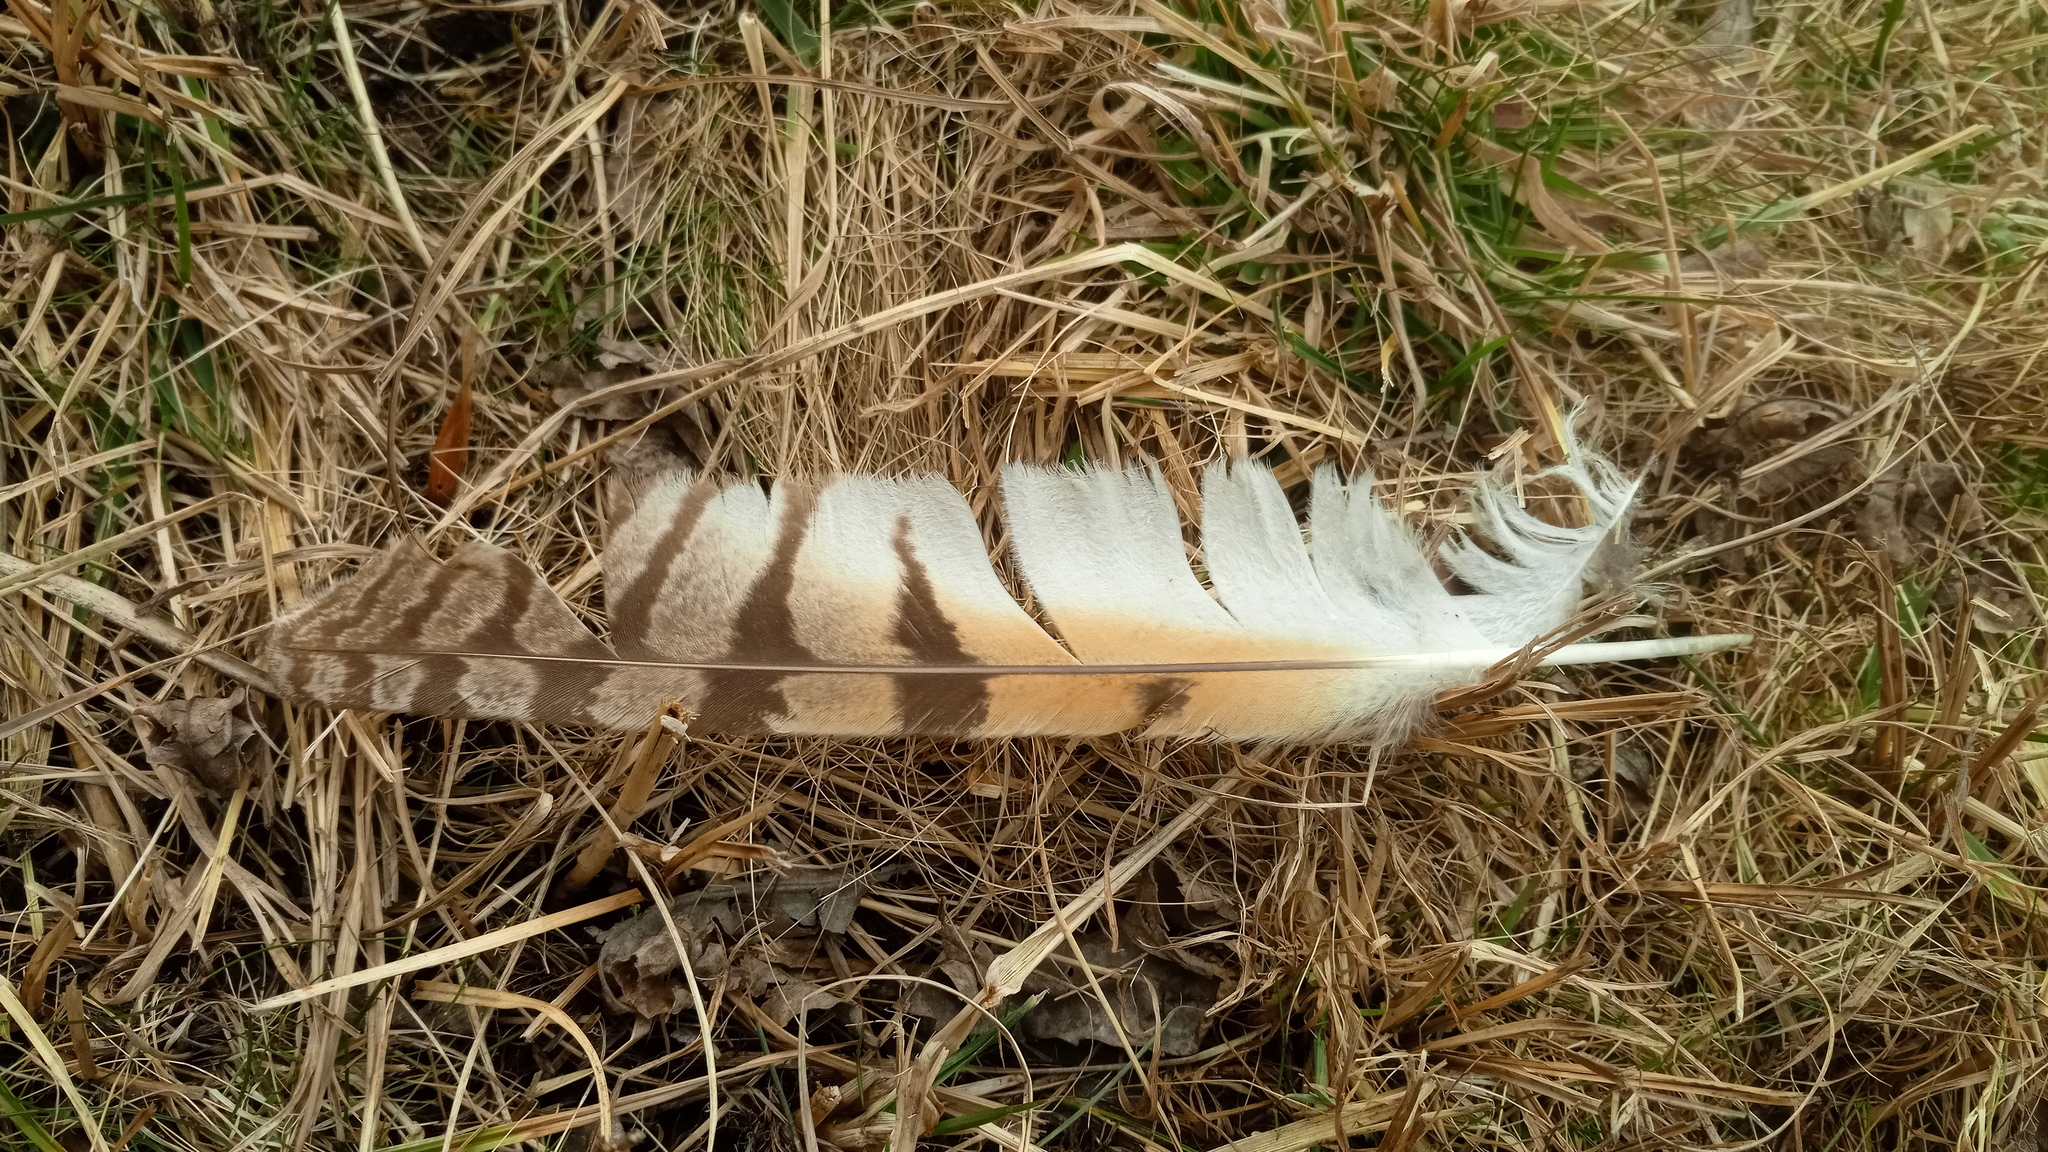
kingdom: Animalia
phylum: Chordata
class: Aves
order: Strigiformes
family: Strigidae
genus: Asio
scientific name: Asio otus
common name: Long-eared owl
